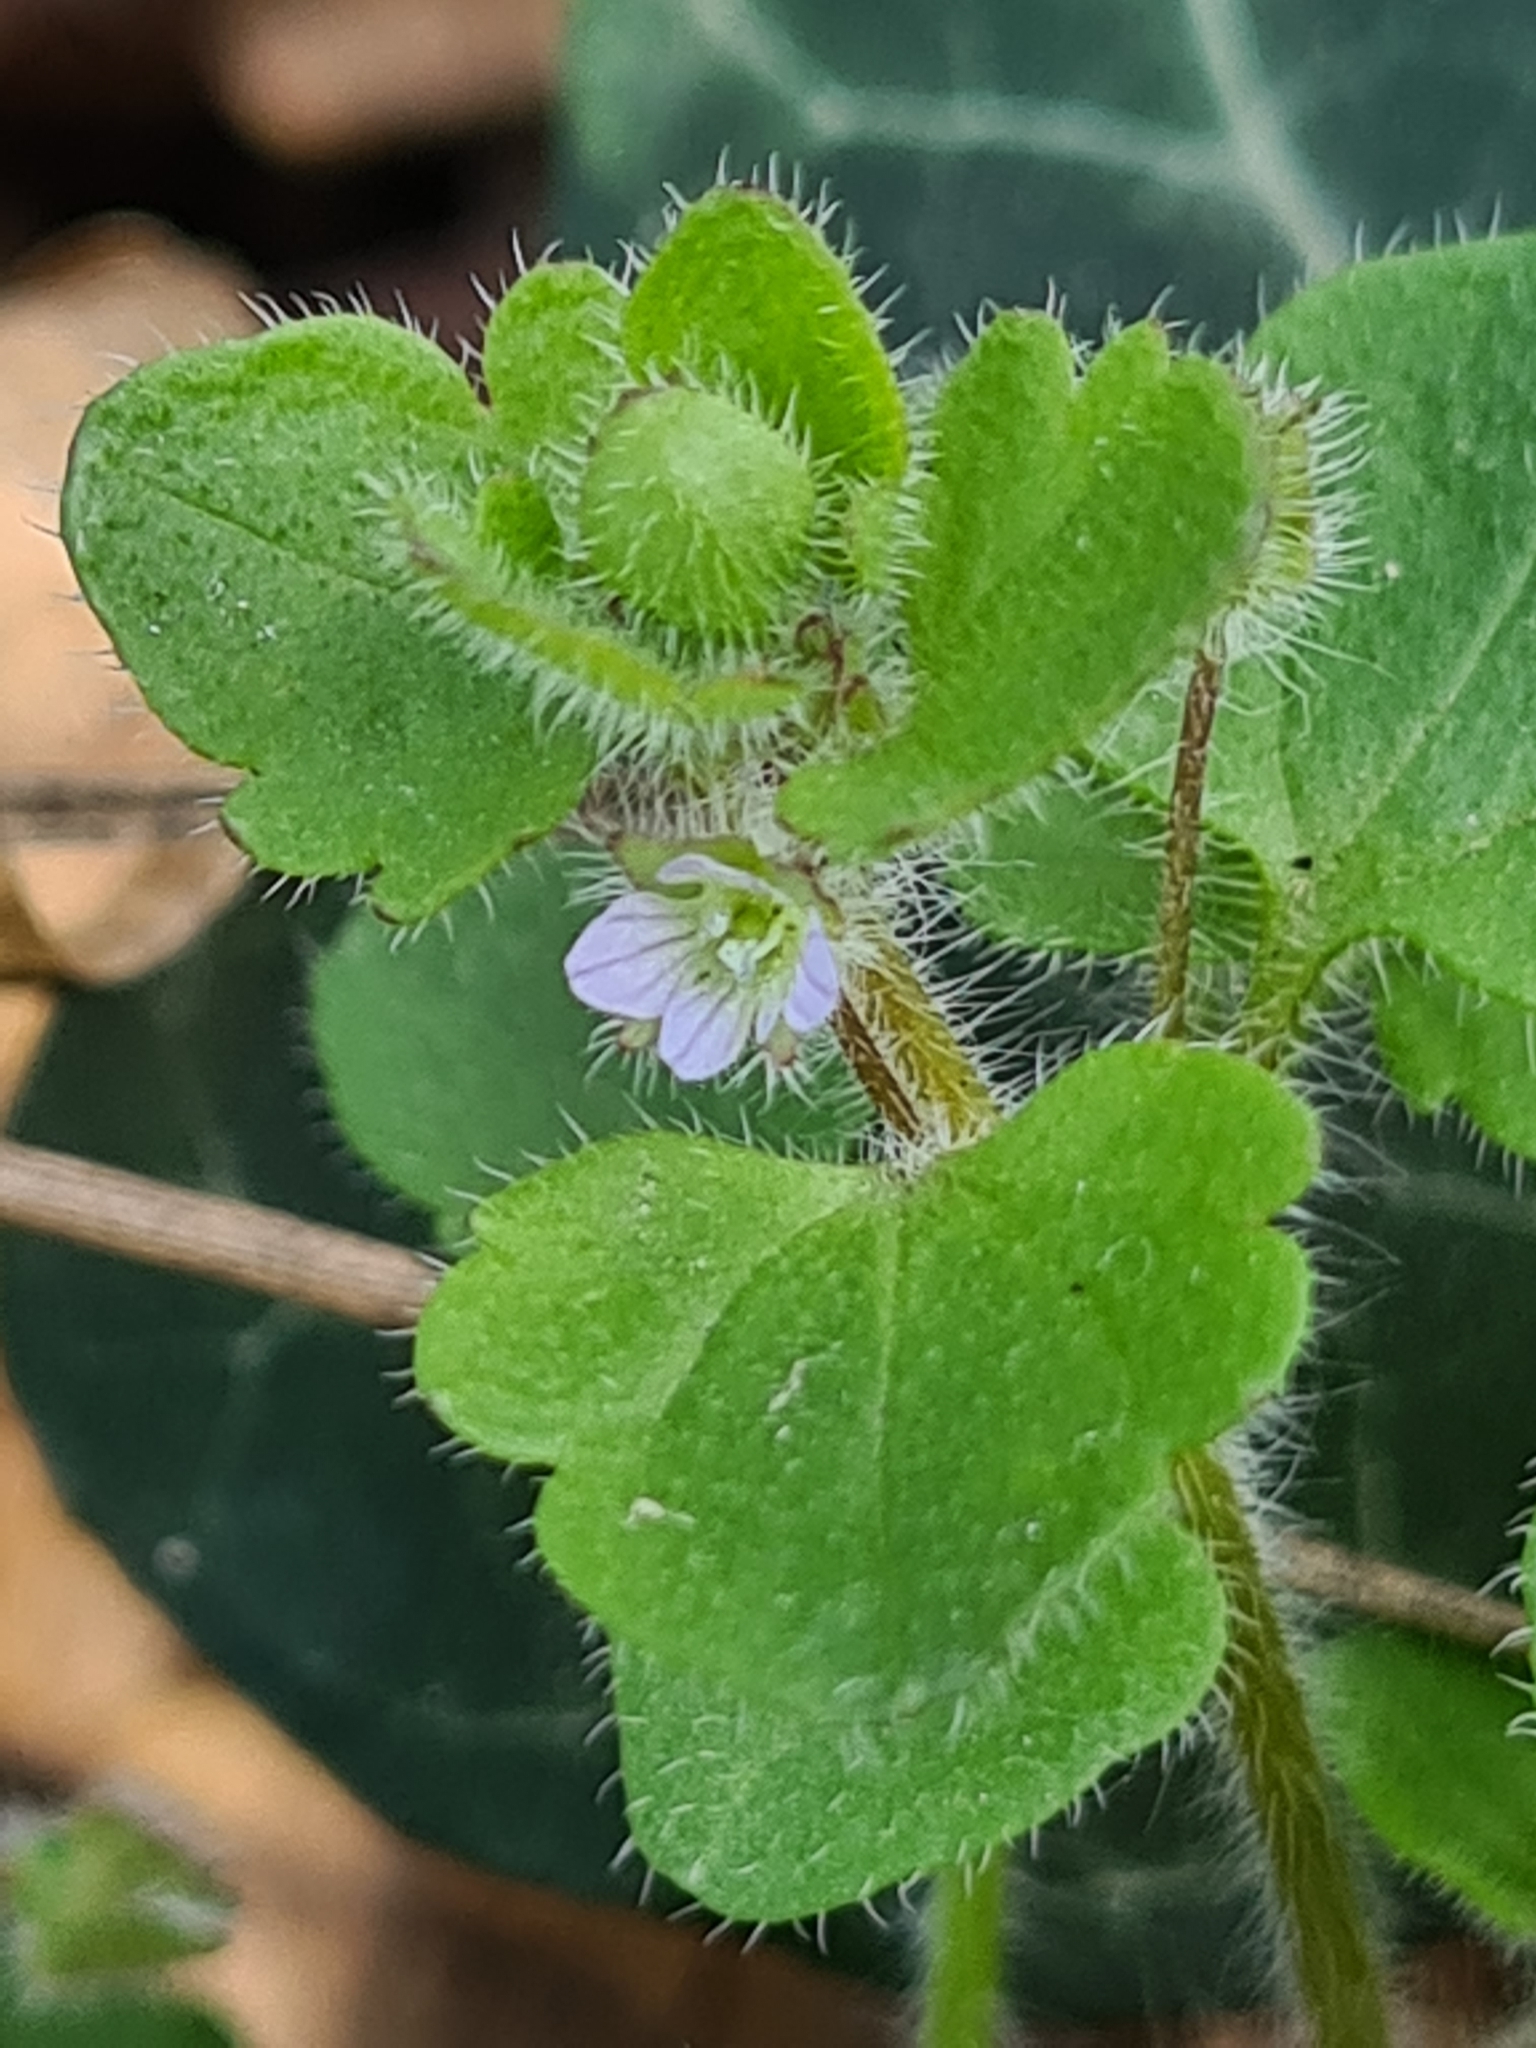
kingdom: Plantae
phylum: Tracheophyta
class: Magnoliopsida
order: Lamiales
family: Plantaginaceae
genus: Veronica
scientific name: Veronica sublobata
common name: False ivy-leaved speedwell
